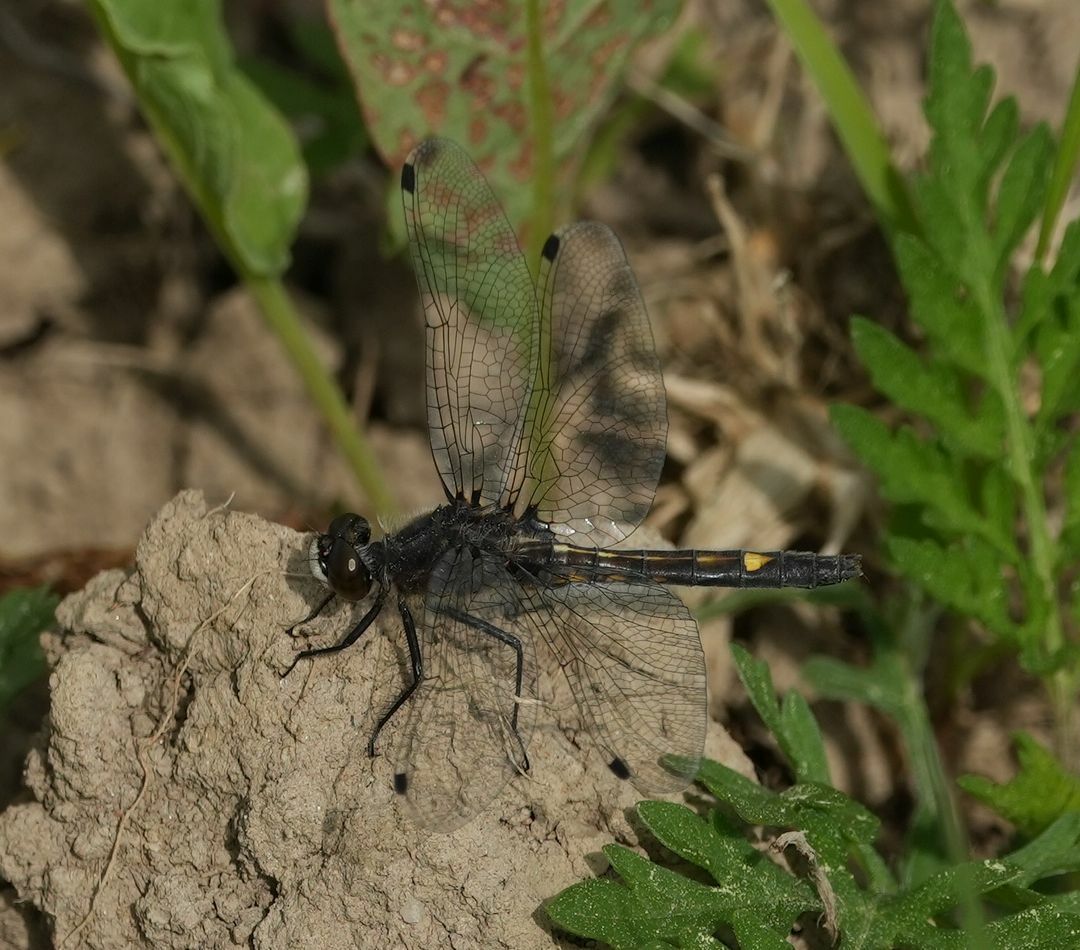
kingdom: Animalia
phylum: Arthropoda
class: Insecta
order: Odonata
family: Libellulidae
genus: Leucorrhinia
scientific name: Leucorrhinia intacta
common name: Dot-tailed whiteface
